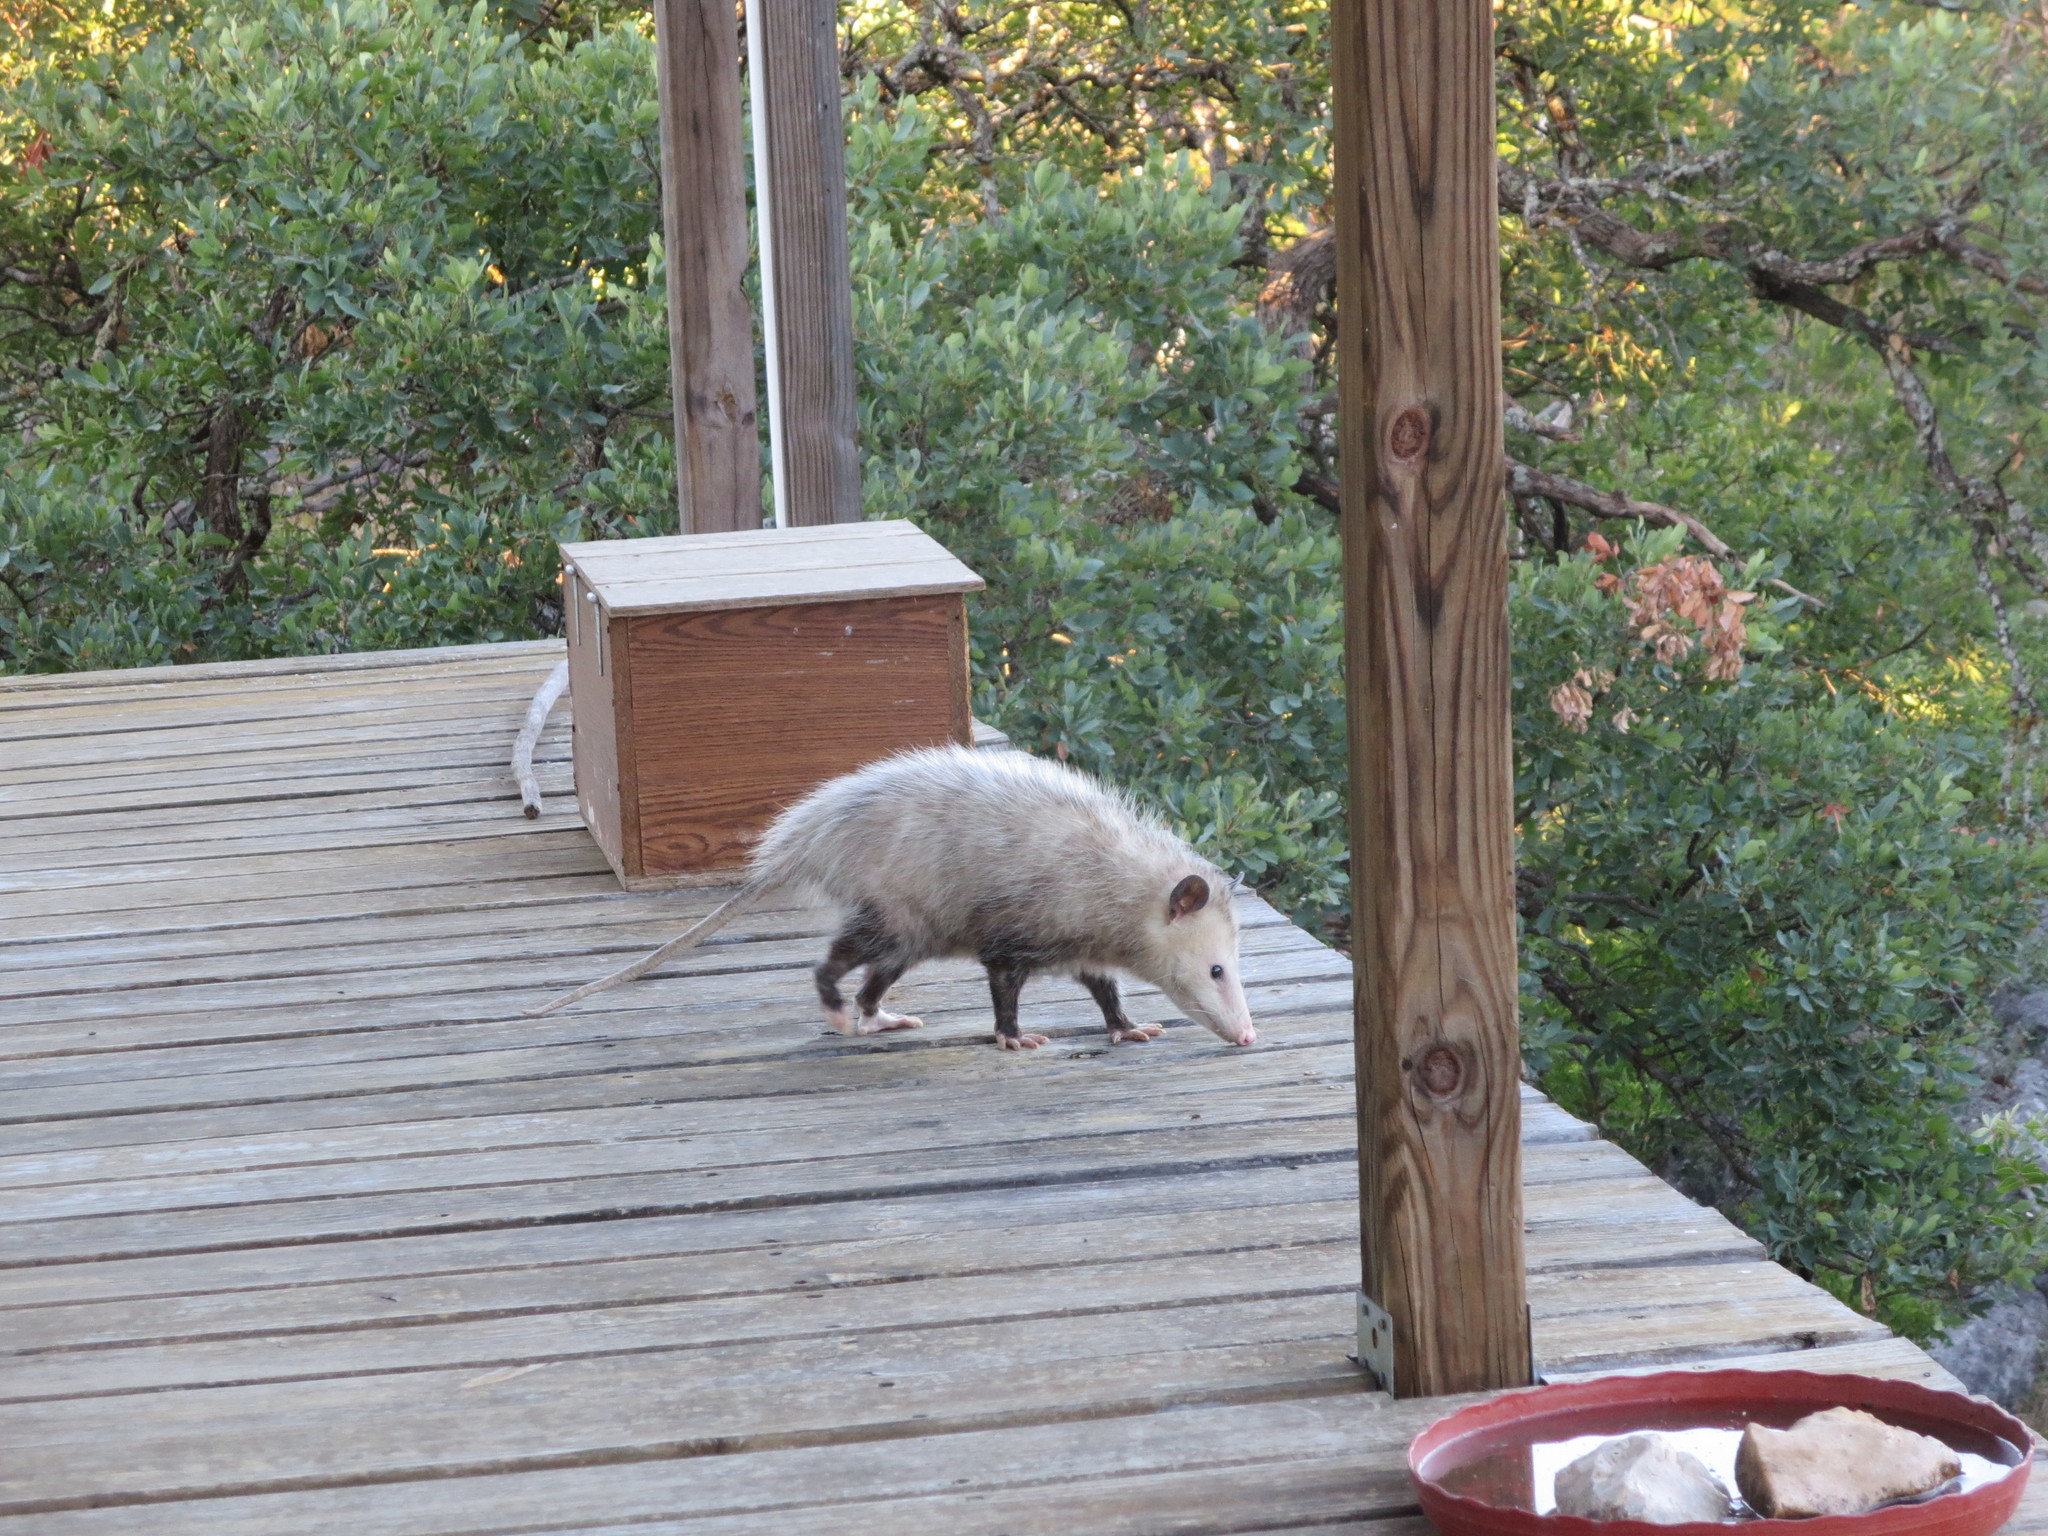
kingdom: Animalia
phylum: Chordata
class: Mammalia
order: Didelphimorphia
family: Didelphidae
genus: Didelphis
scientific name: Didelphis virginiana
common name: Virginia opossum
